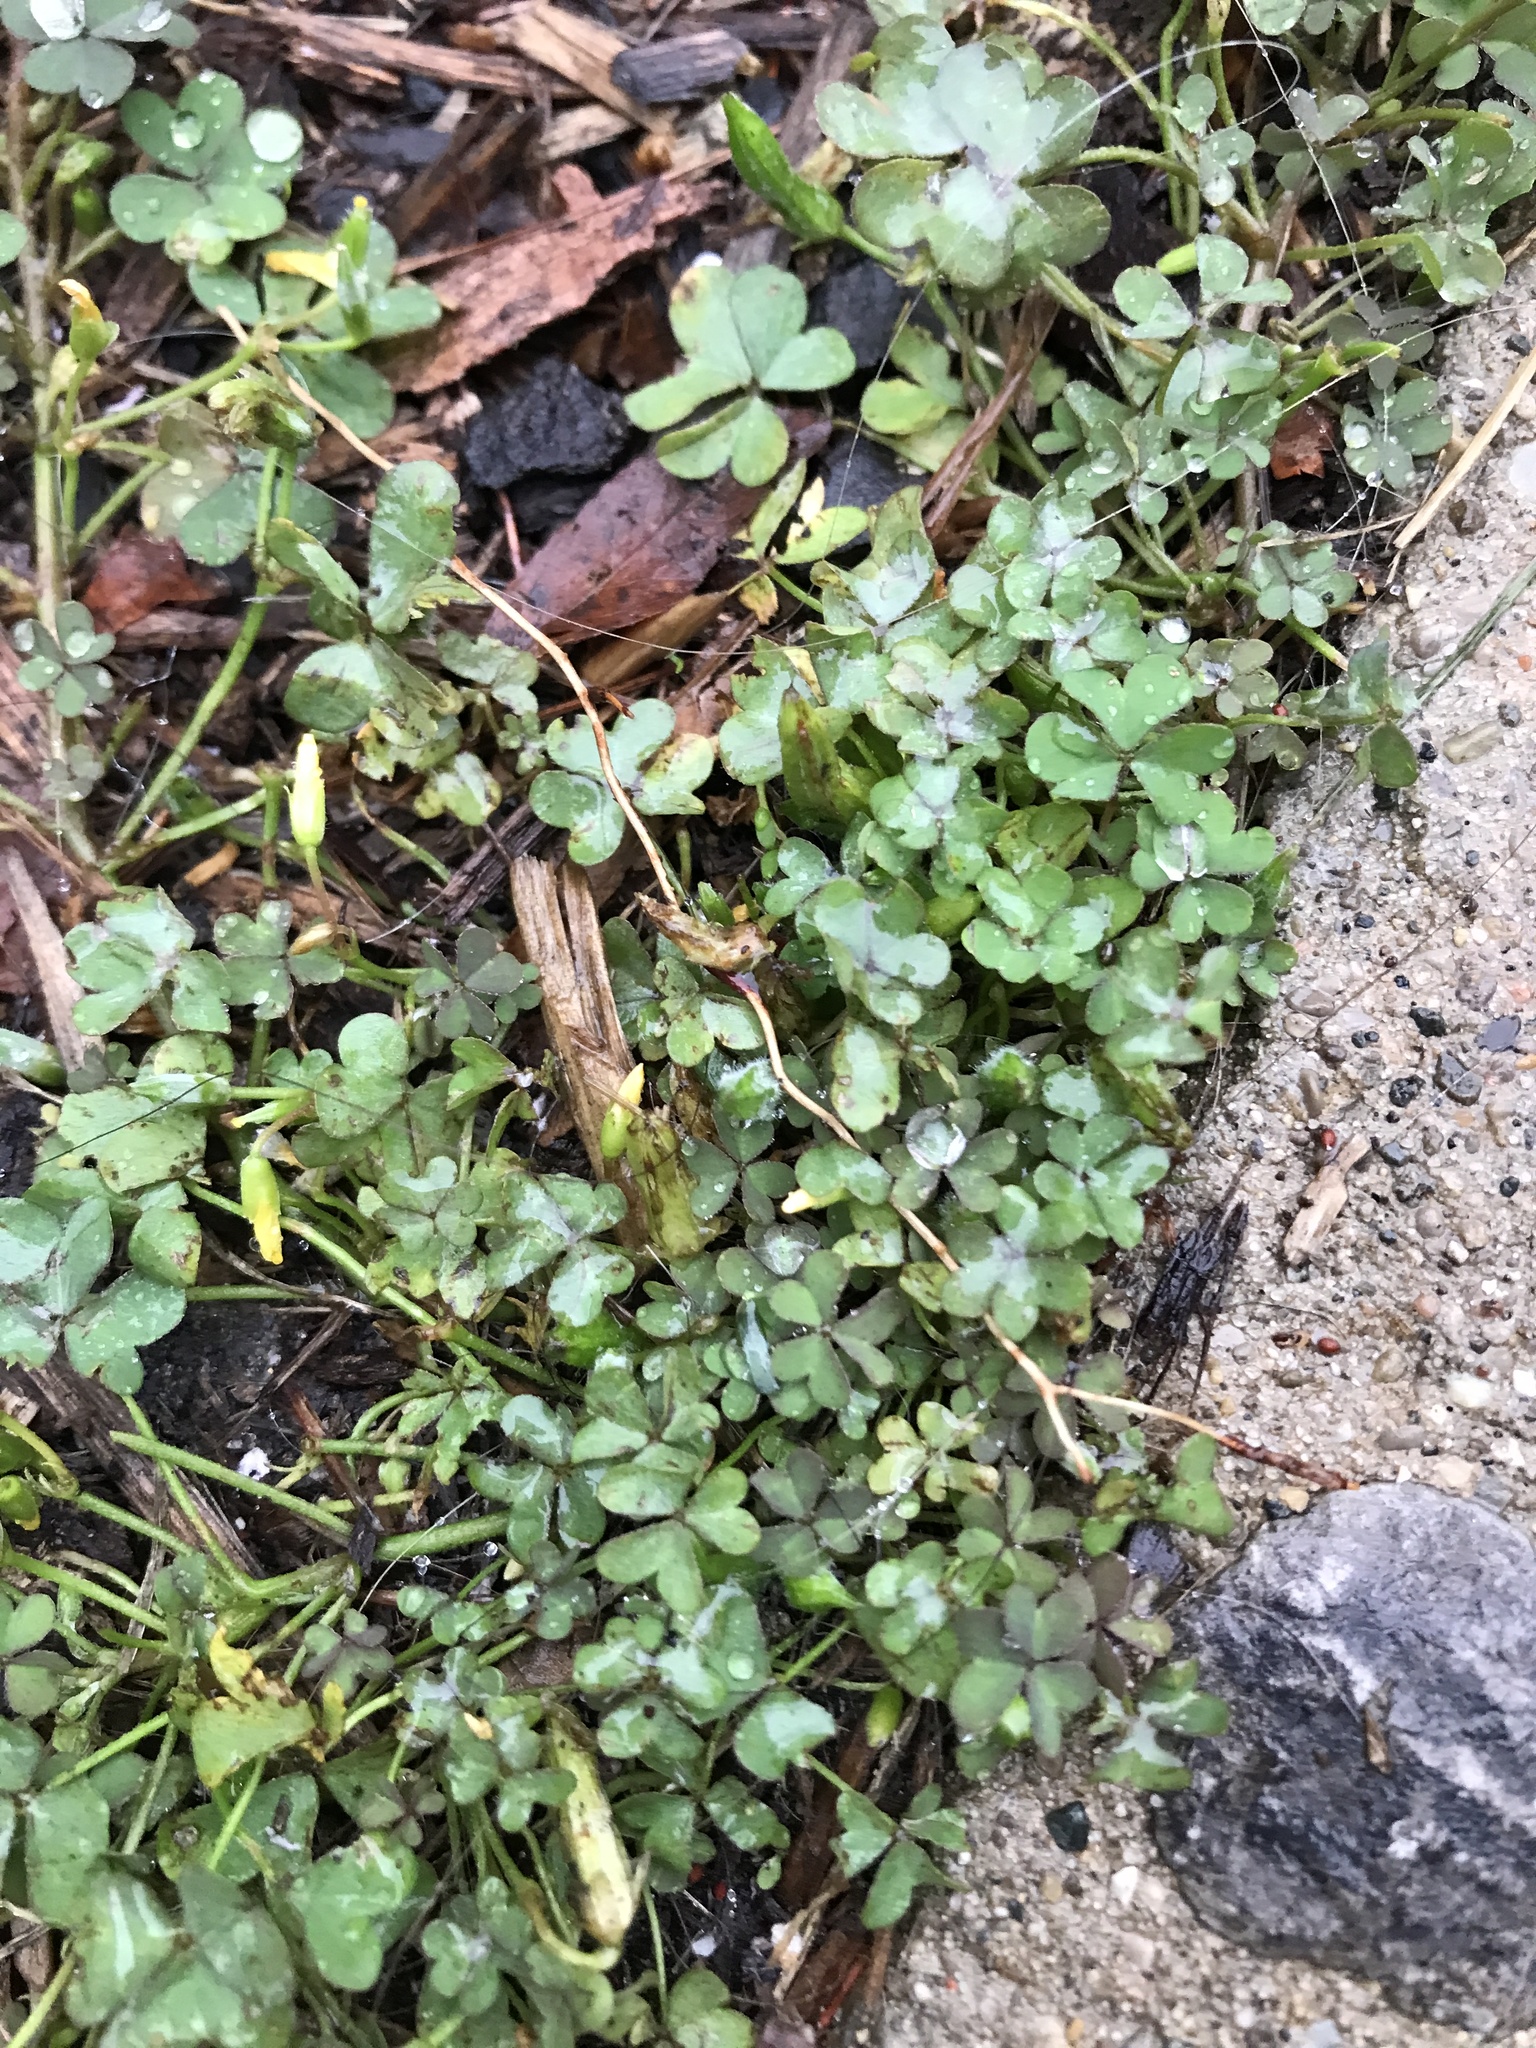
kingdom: Plantae
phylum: Tracheophyta
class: Magnoliopsida
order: Oxalidales
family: Oxalidaceae
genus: Oxalis
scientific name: Oxalis corniculata
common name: Procumbent yellow-sorrel
